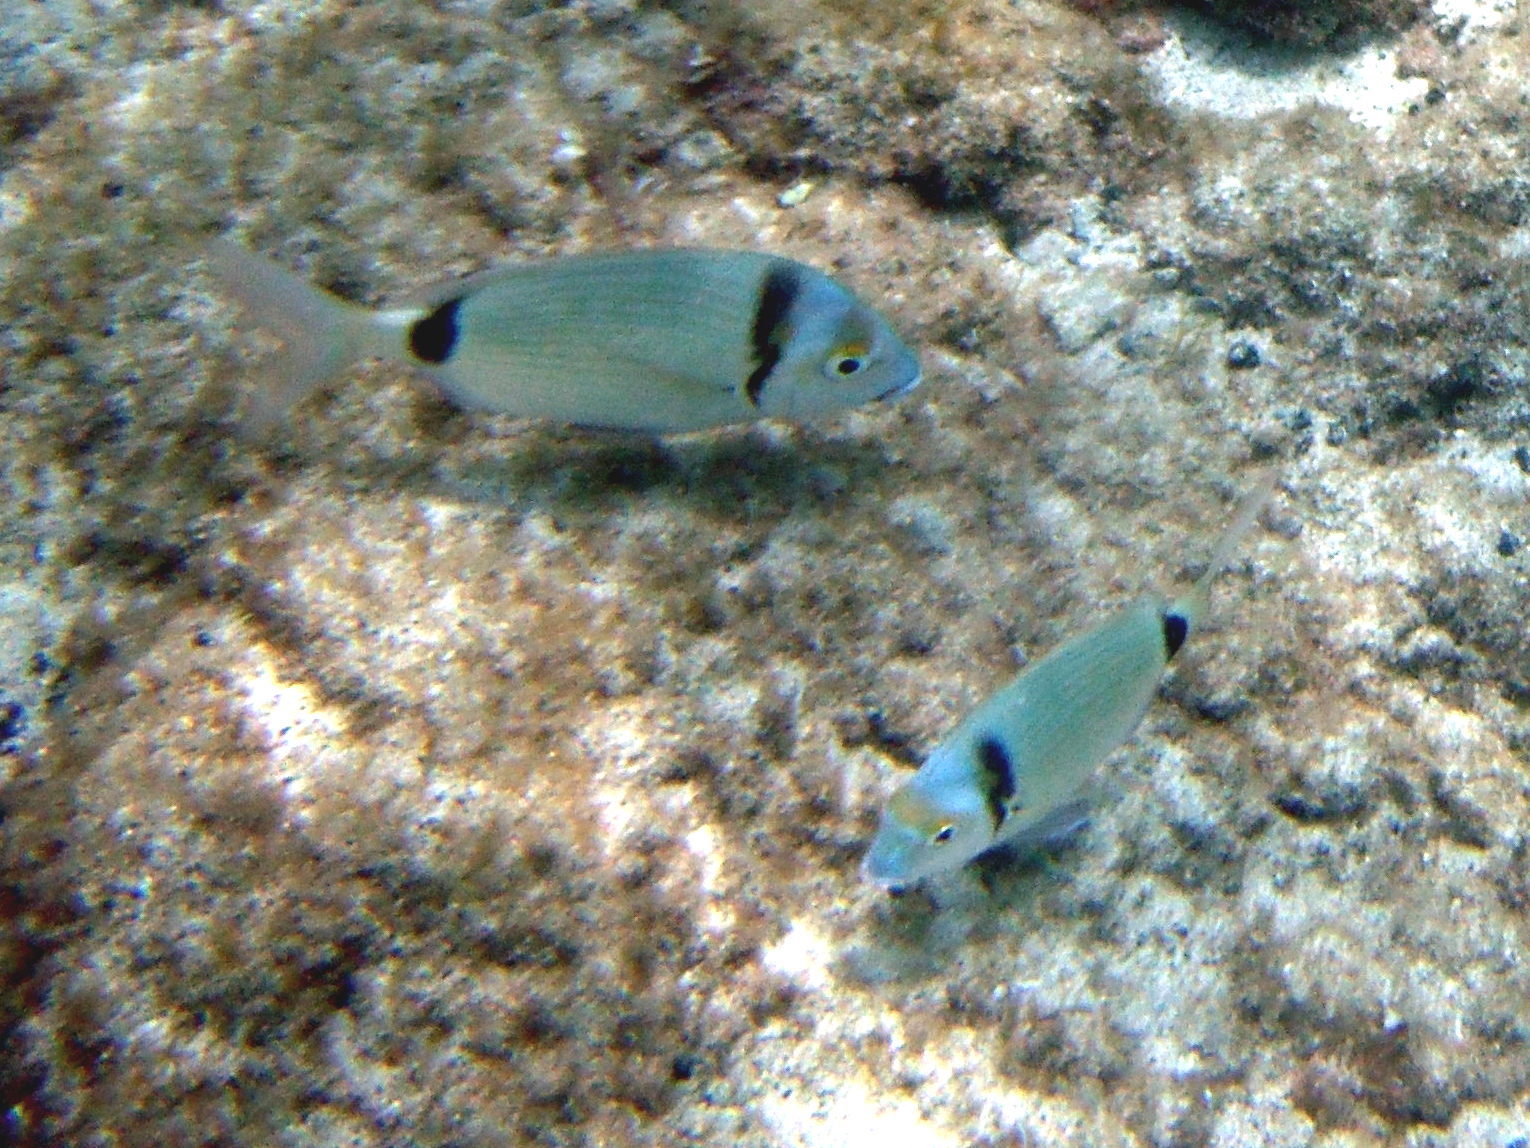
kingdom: Animalia
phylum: Chordata
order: Perciformes
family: Sparidae
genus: Diplodus
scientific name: Diplodus vulgaris
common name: Common two-banded seabream
